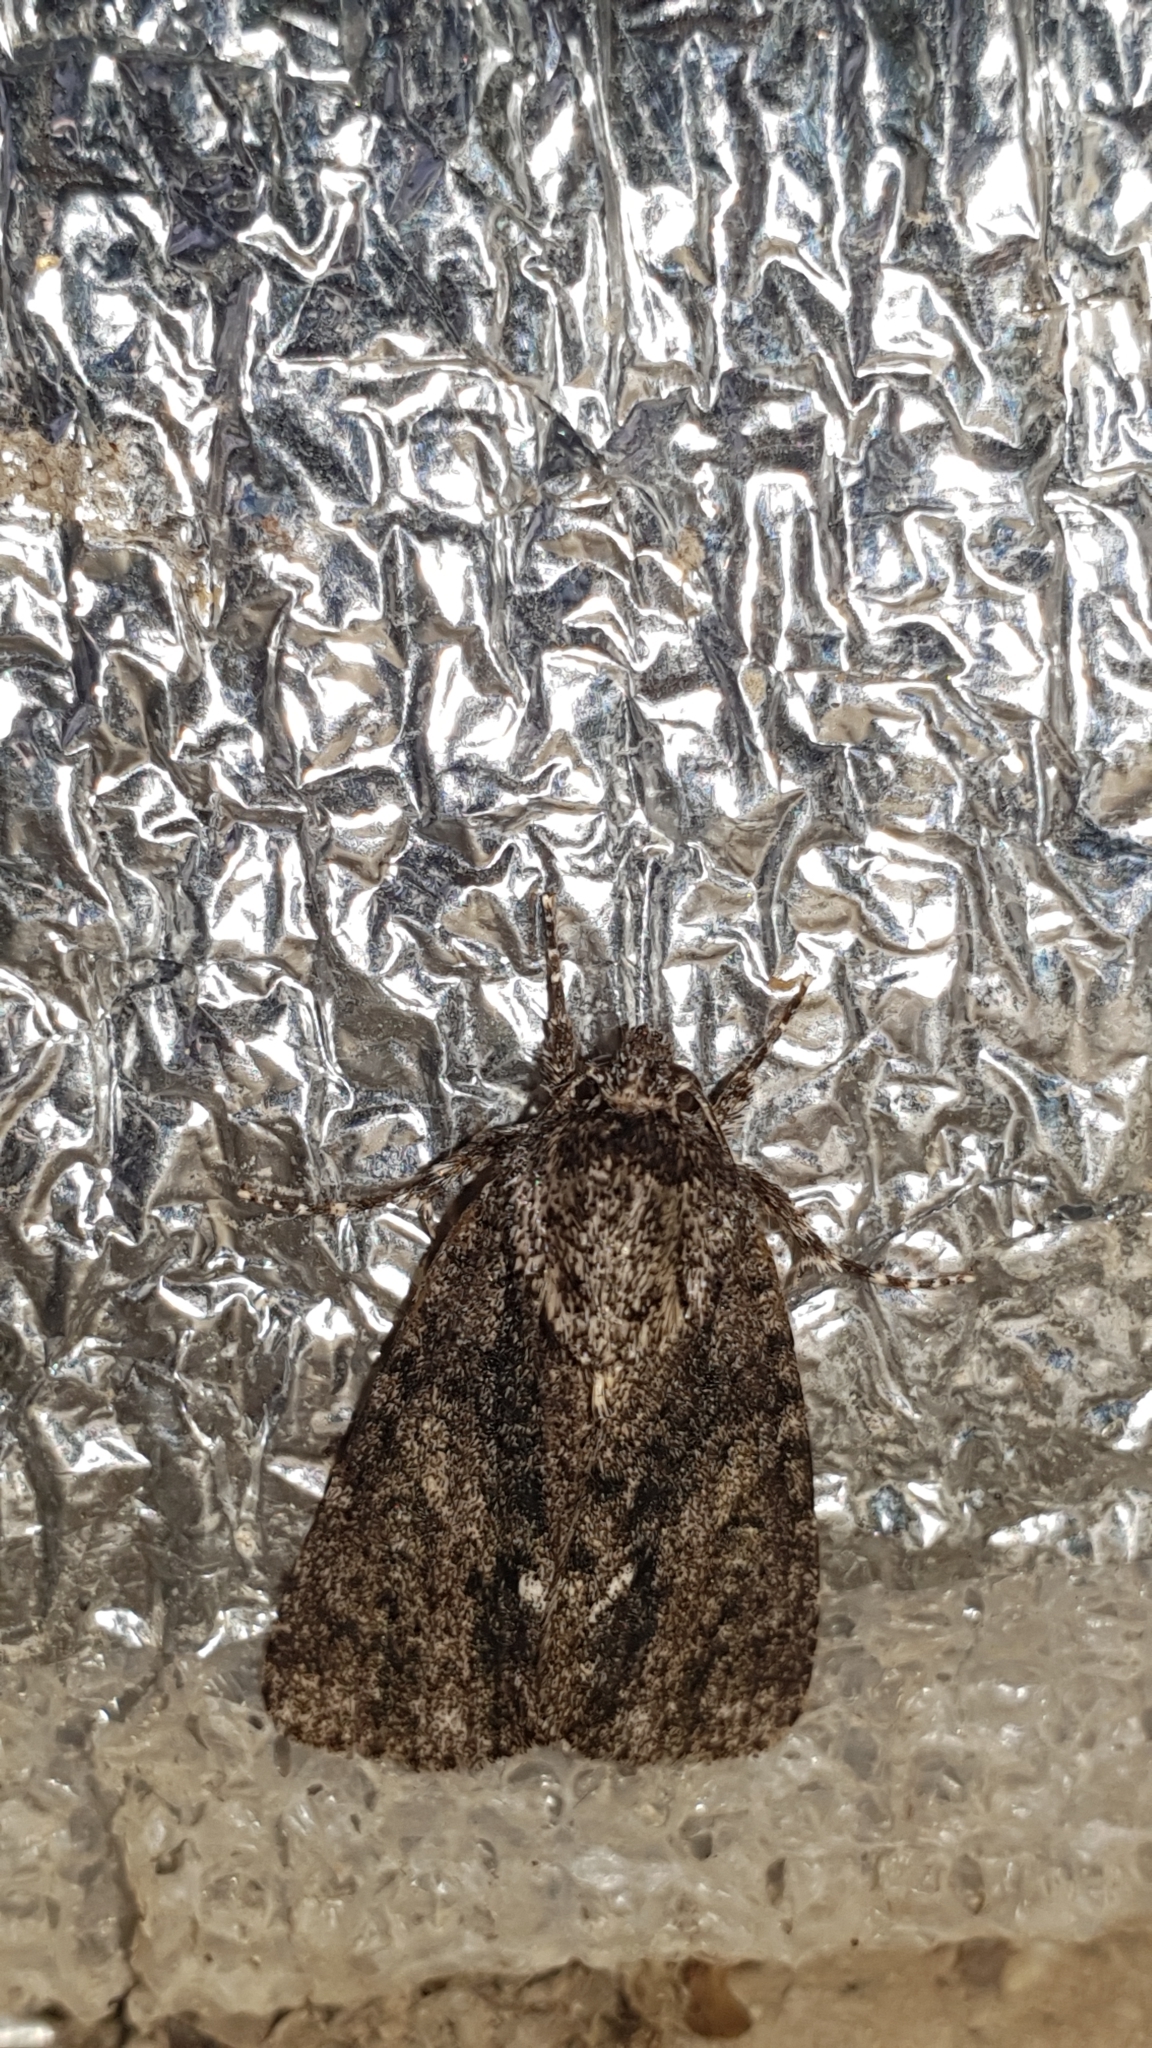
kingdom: Animalia
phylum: Arthropoda
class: Insecta
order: Lepidoptera
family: Noctuidae
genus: Acronicta
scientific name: Acronicta rumicis
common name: Knot grass
